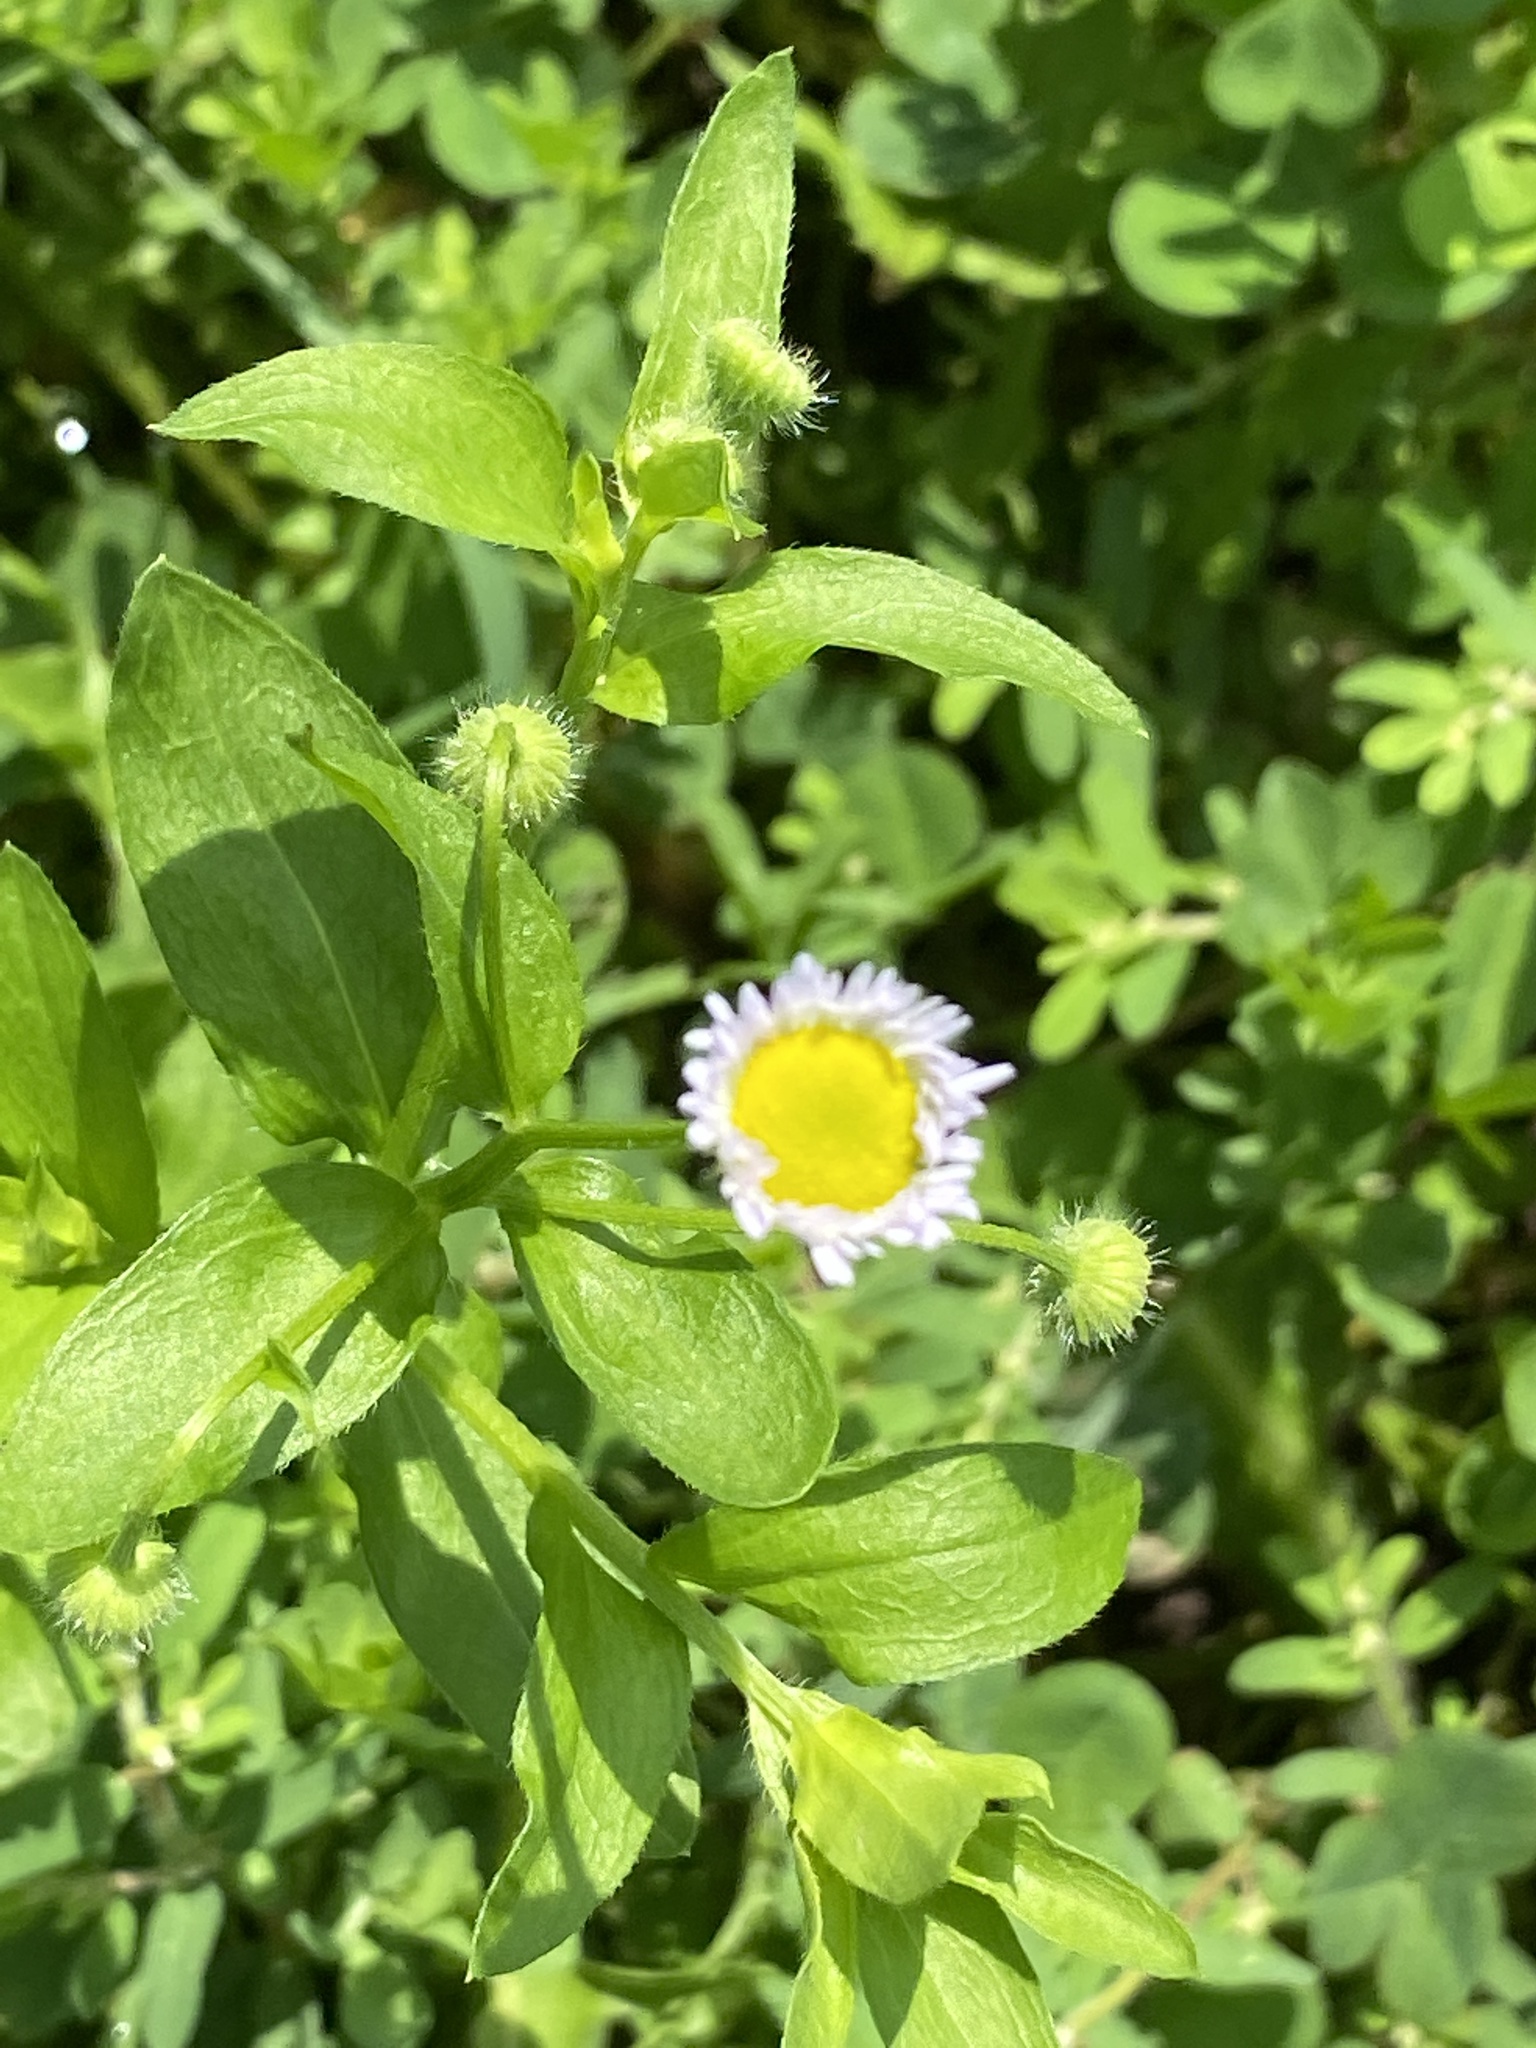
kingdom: Plantae
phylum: Tracheophyta
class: Magnoliopsida
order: Asterales
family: Asteraceae
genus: Erigeron
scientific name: Erigeron annuus
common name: Tall fleabane
